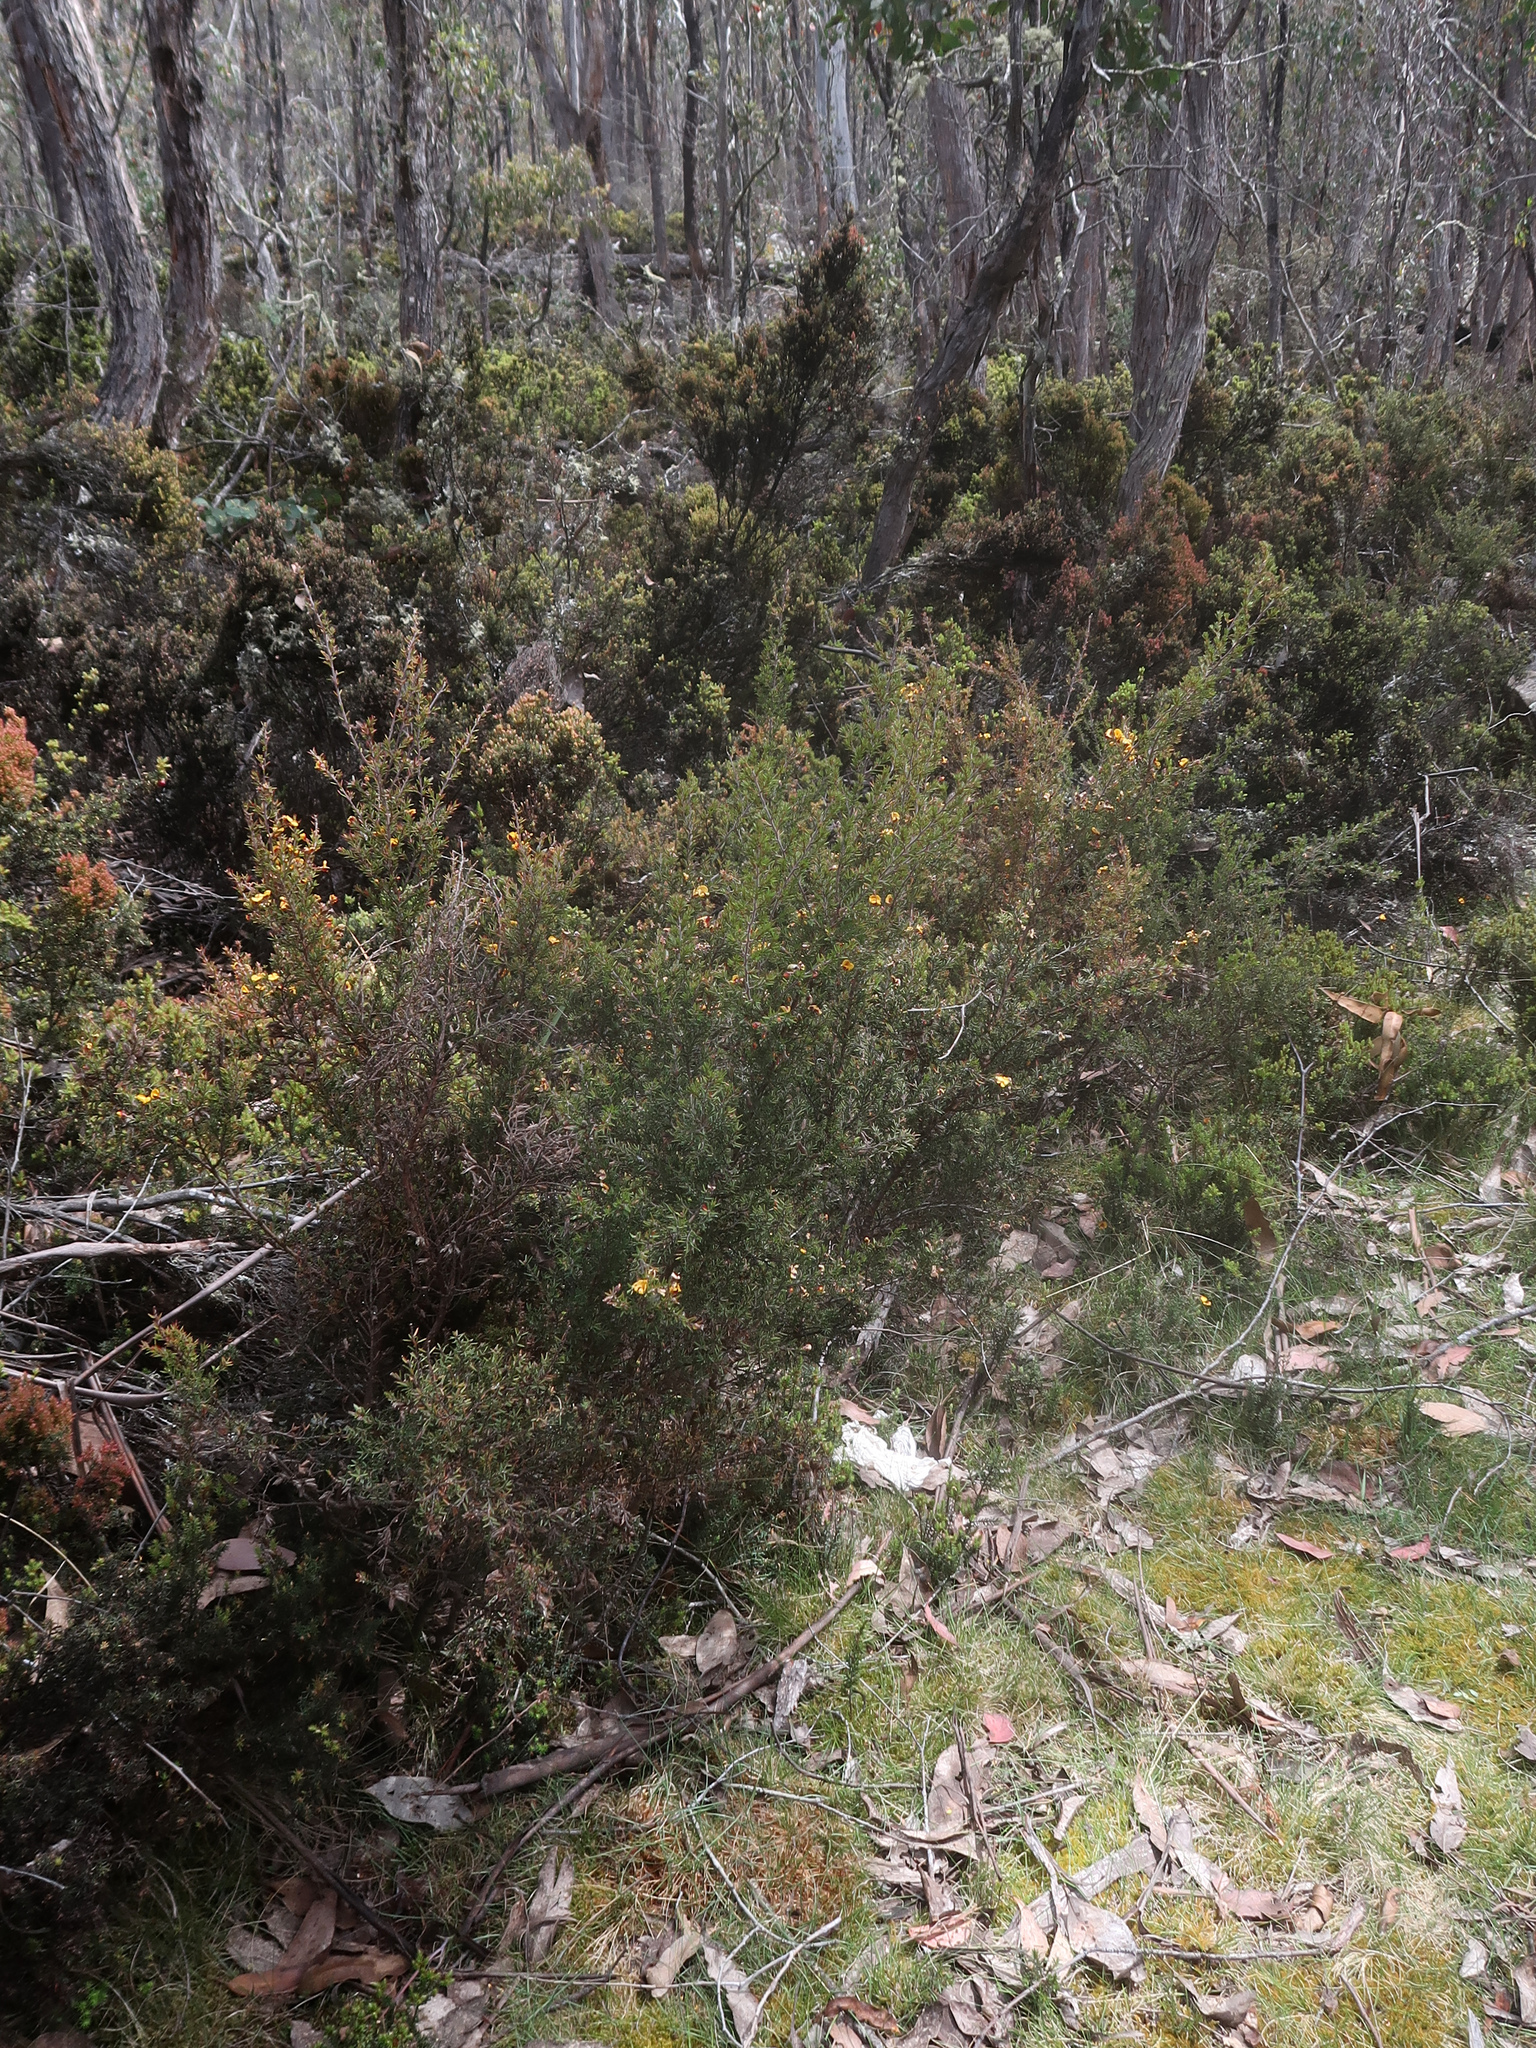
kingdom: Plantae
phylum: Tracheophyta
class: Magnoliopsida
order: Fabales
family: Fabaceae
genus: Pultenaea
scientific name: Pultenaea juniperina
